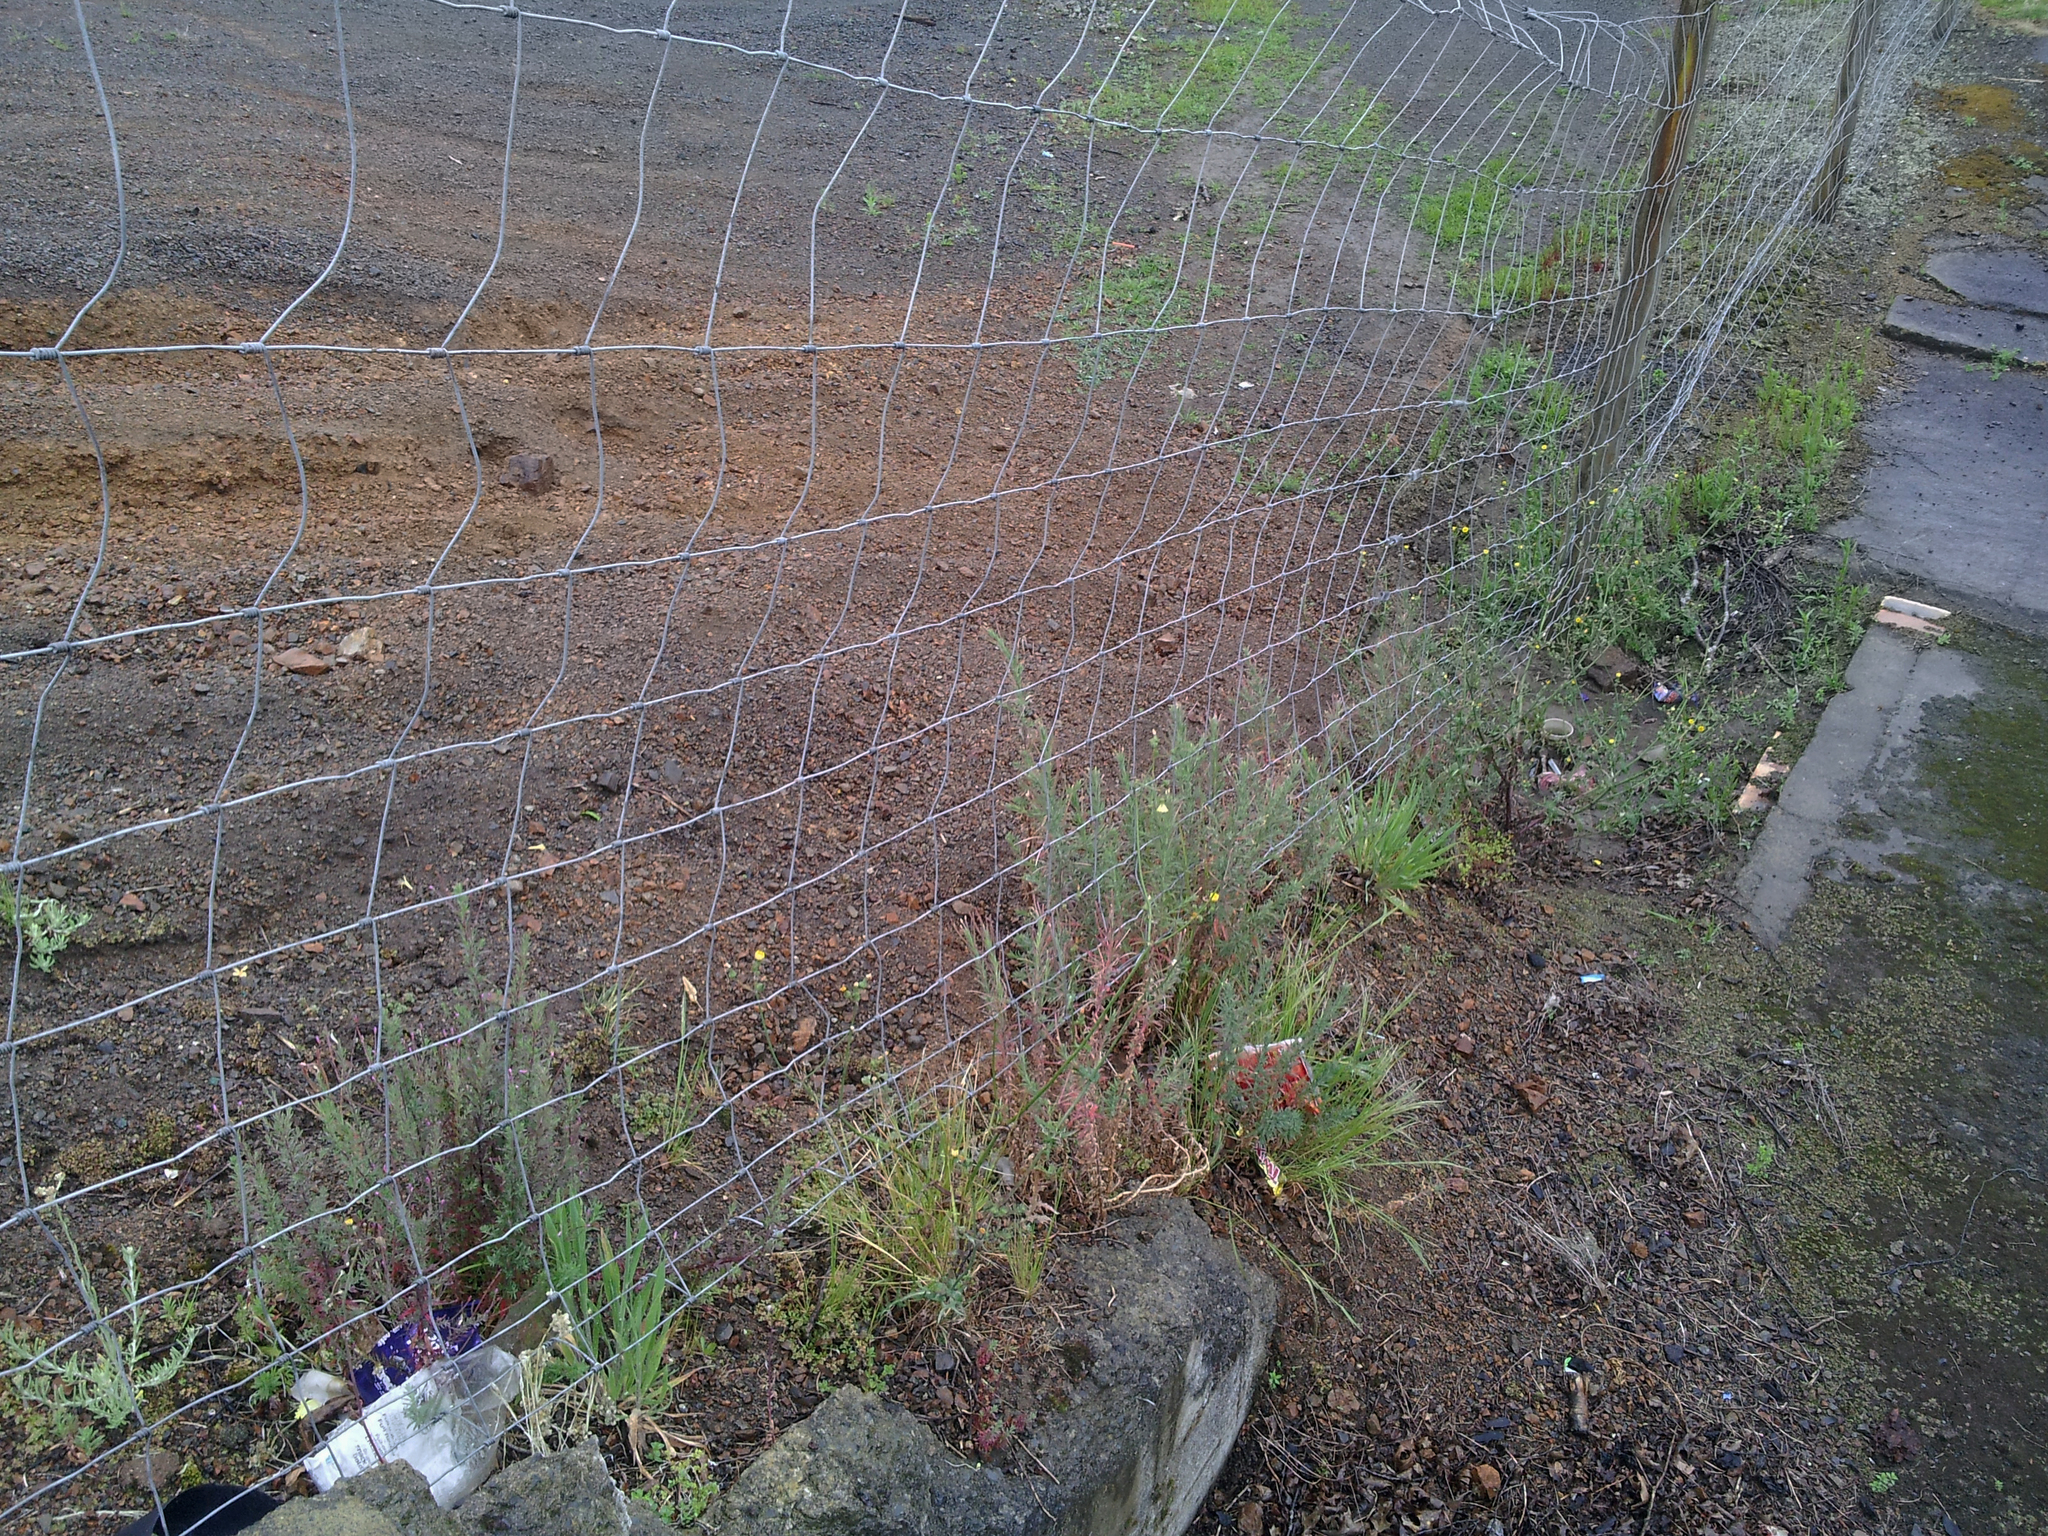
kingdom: Plantae
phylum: Tracheophyta
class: Magnoliopsida
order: Myrtales
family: Onagraceae
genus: Epilobium
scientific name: Epilobium hirtigerum
